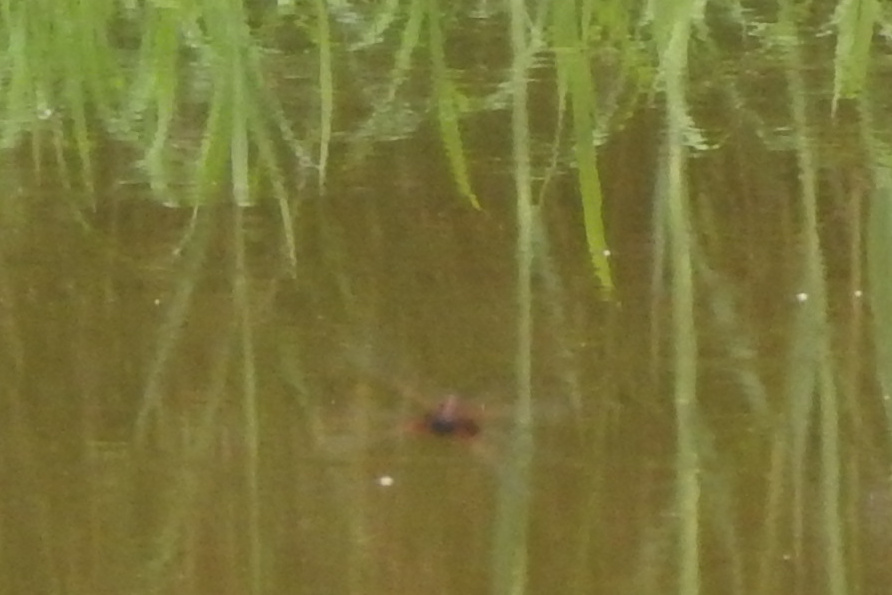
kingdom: Animalia
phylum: Arthropoda
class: Insecta
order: Odonata
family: Libellulidae
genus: Tramea
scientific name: Tramea carolina
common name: Carolina saddlebags
